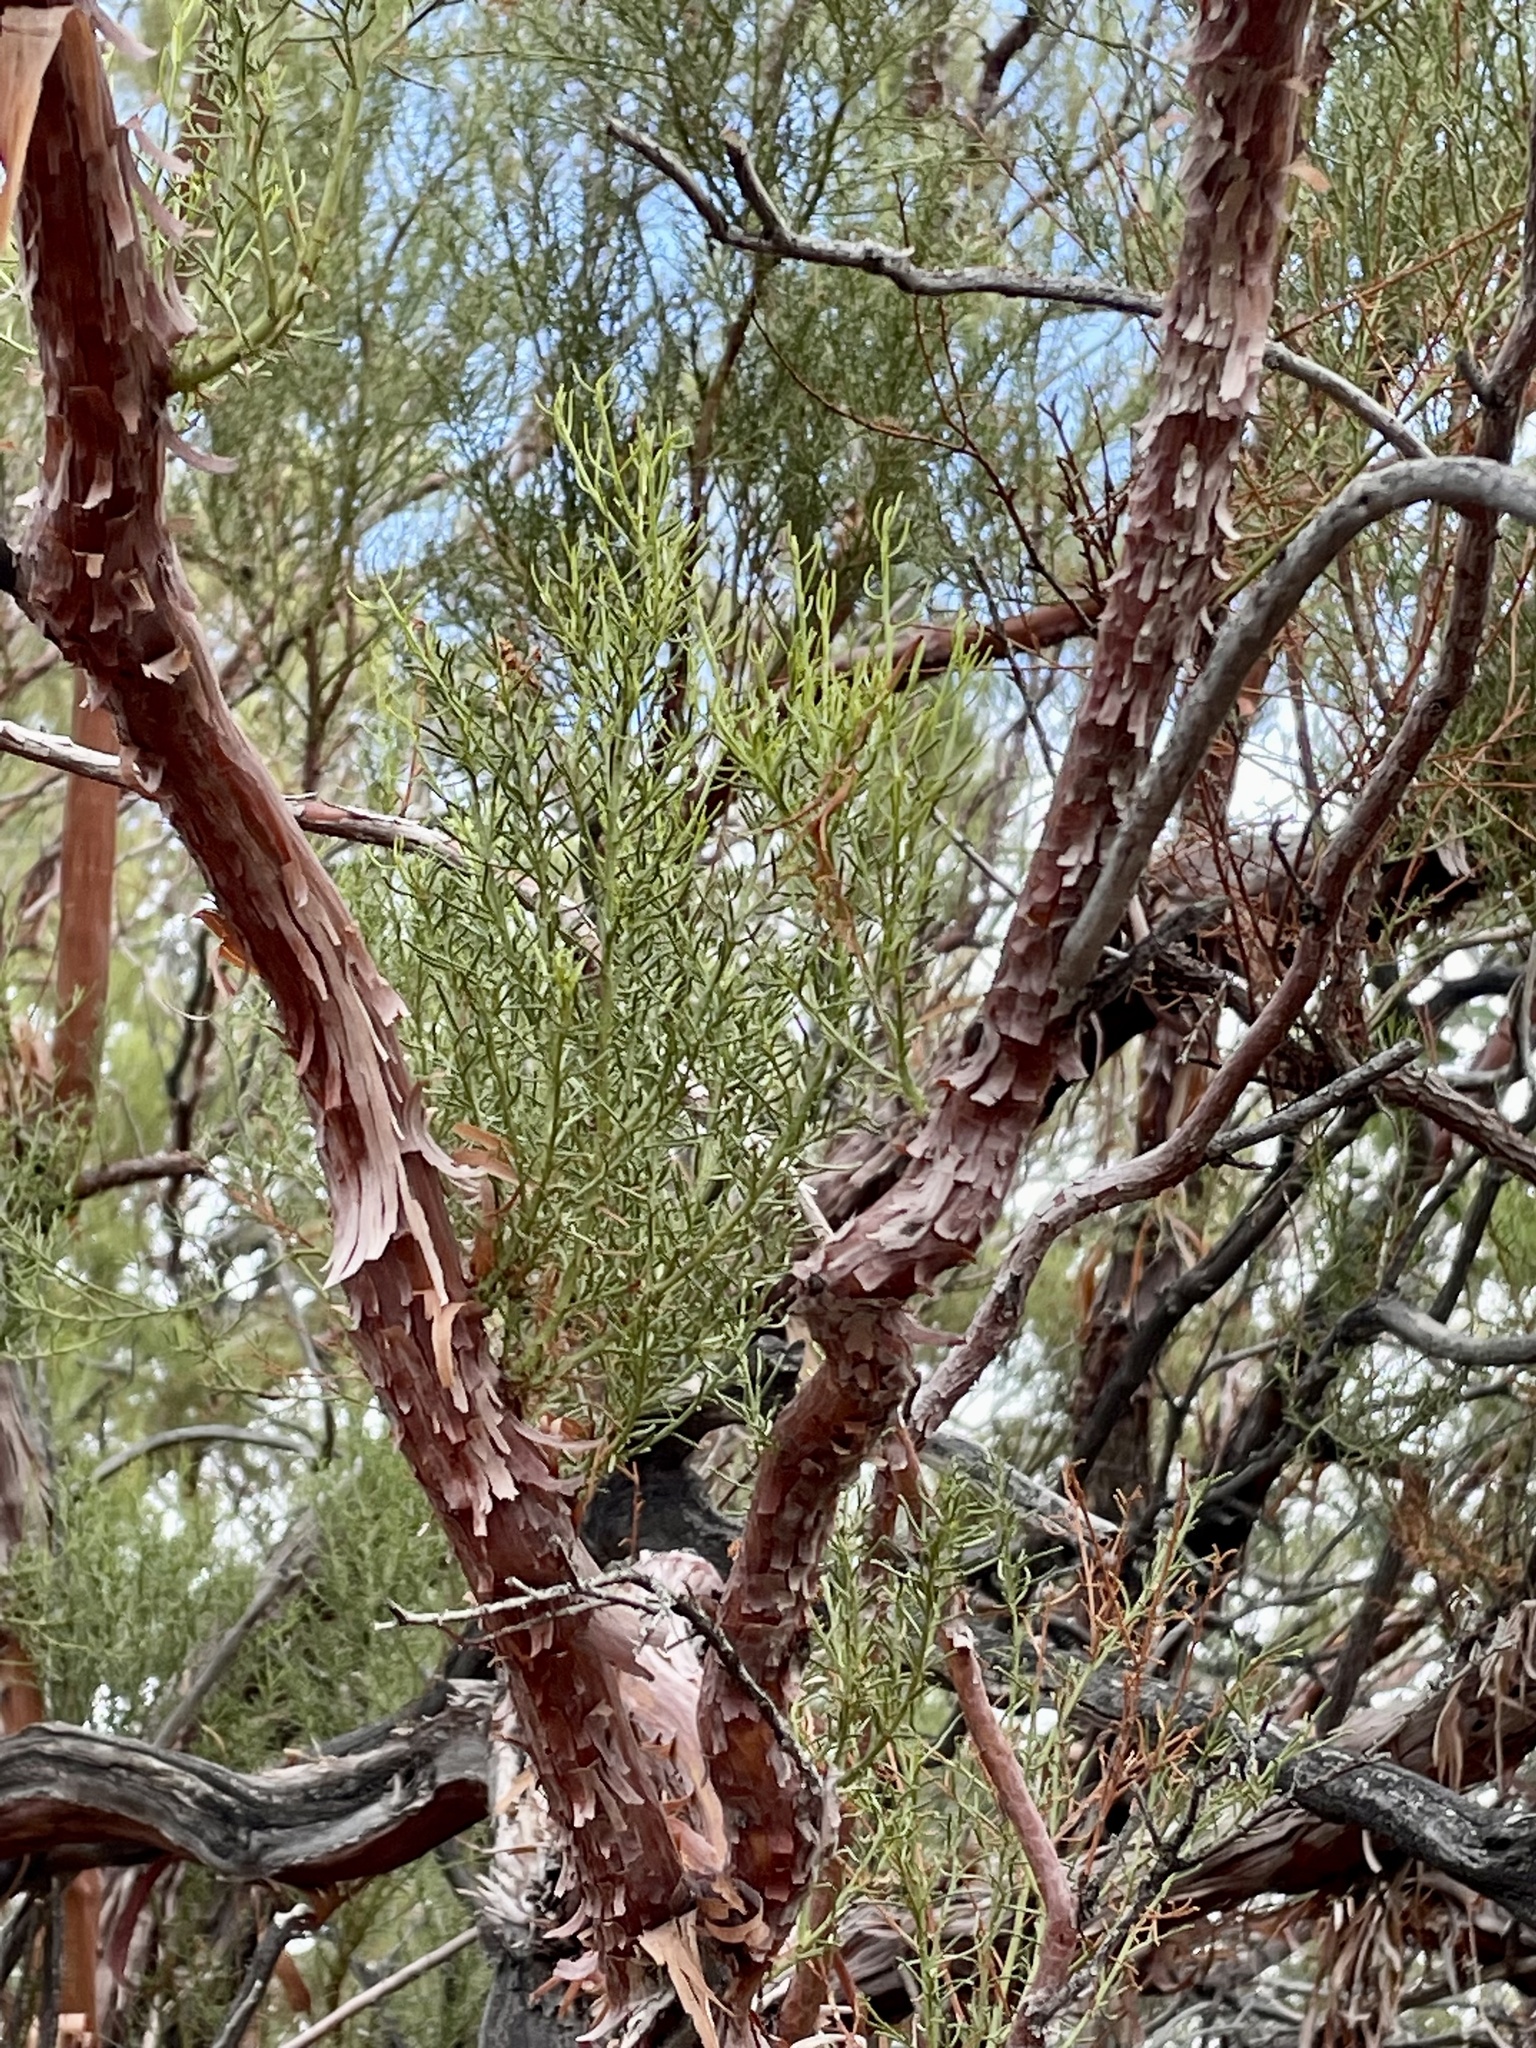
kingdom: Plantae
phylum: Tracheophyta
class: Magnoliopsida
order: Rosales
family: Rosaceae
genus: Adenostoma
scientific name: Adenostoma sparsifolium
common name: Red shank
